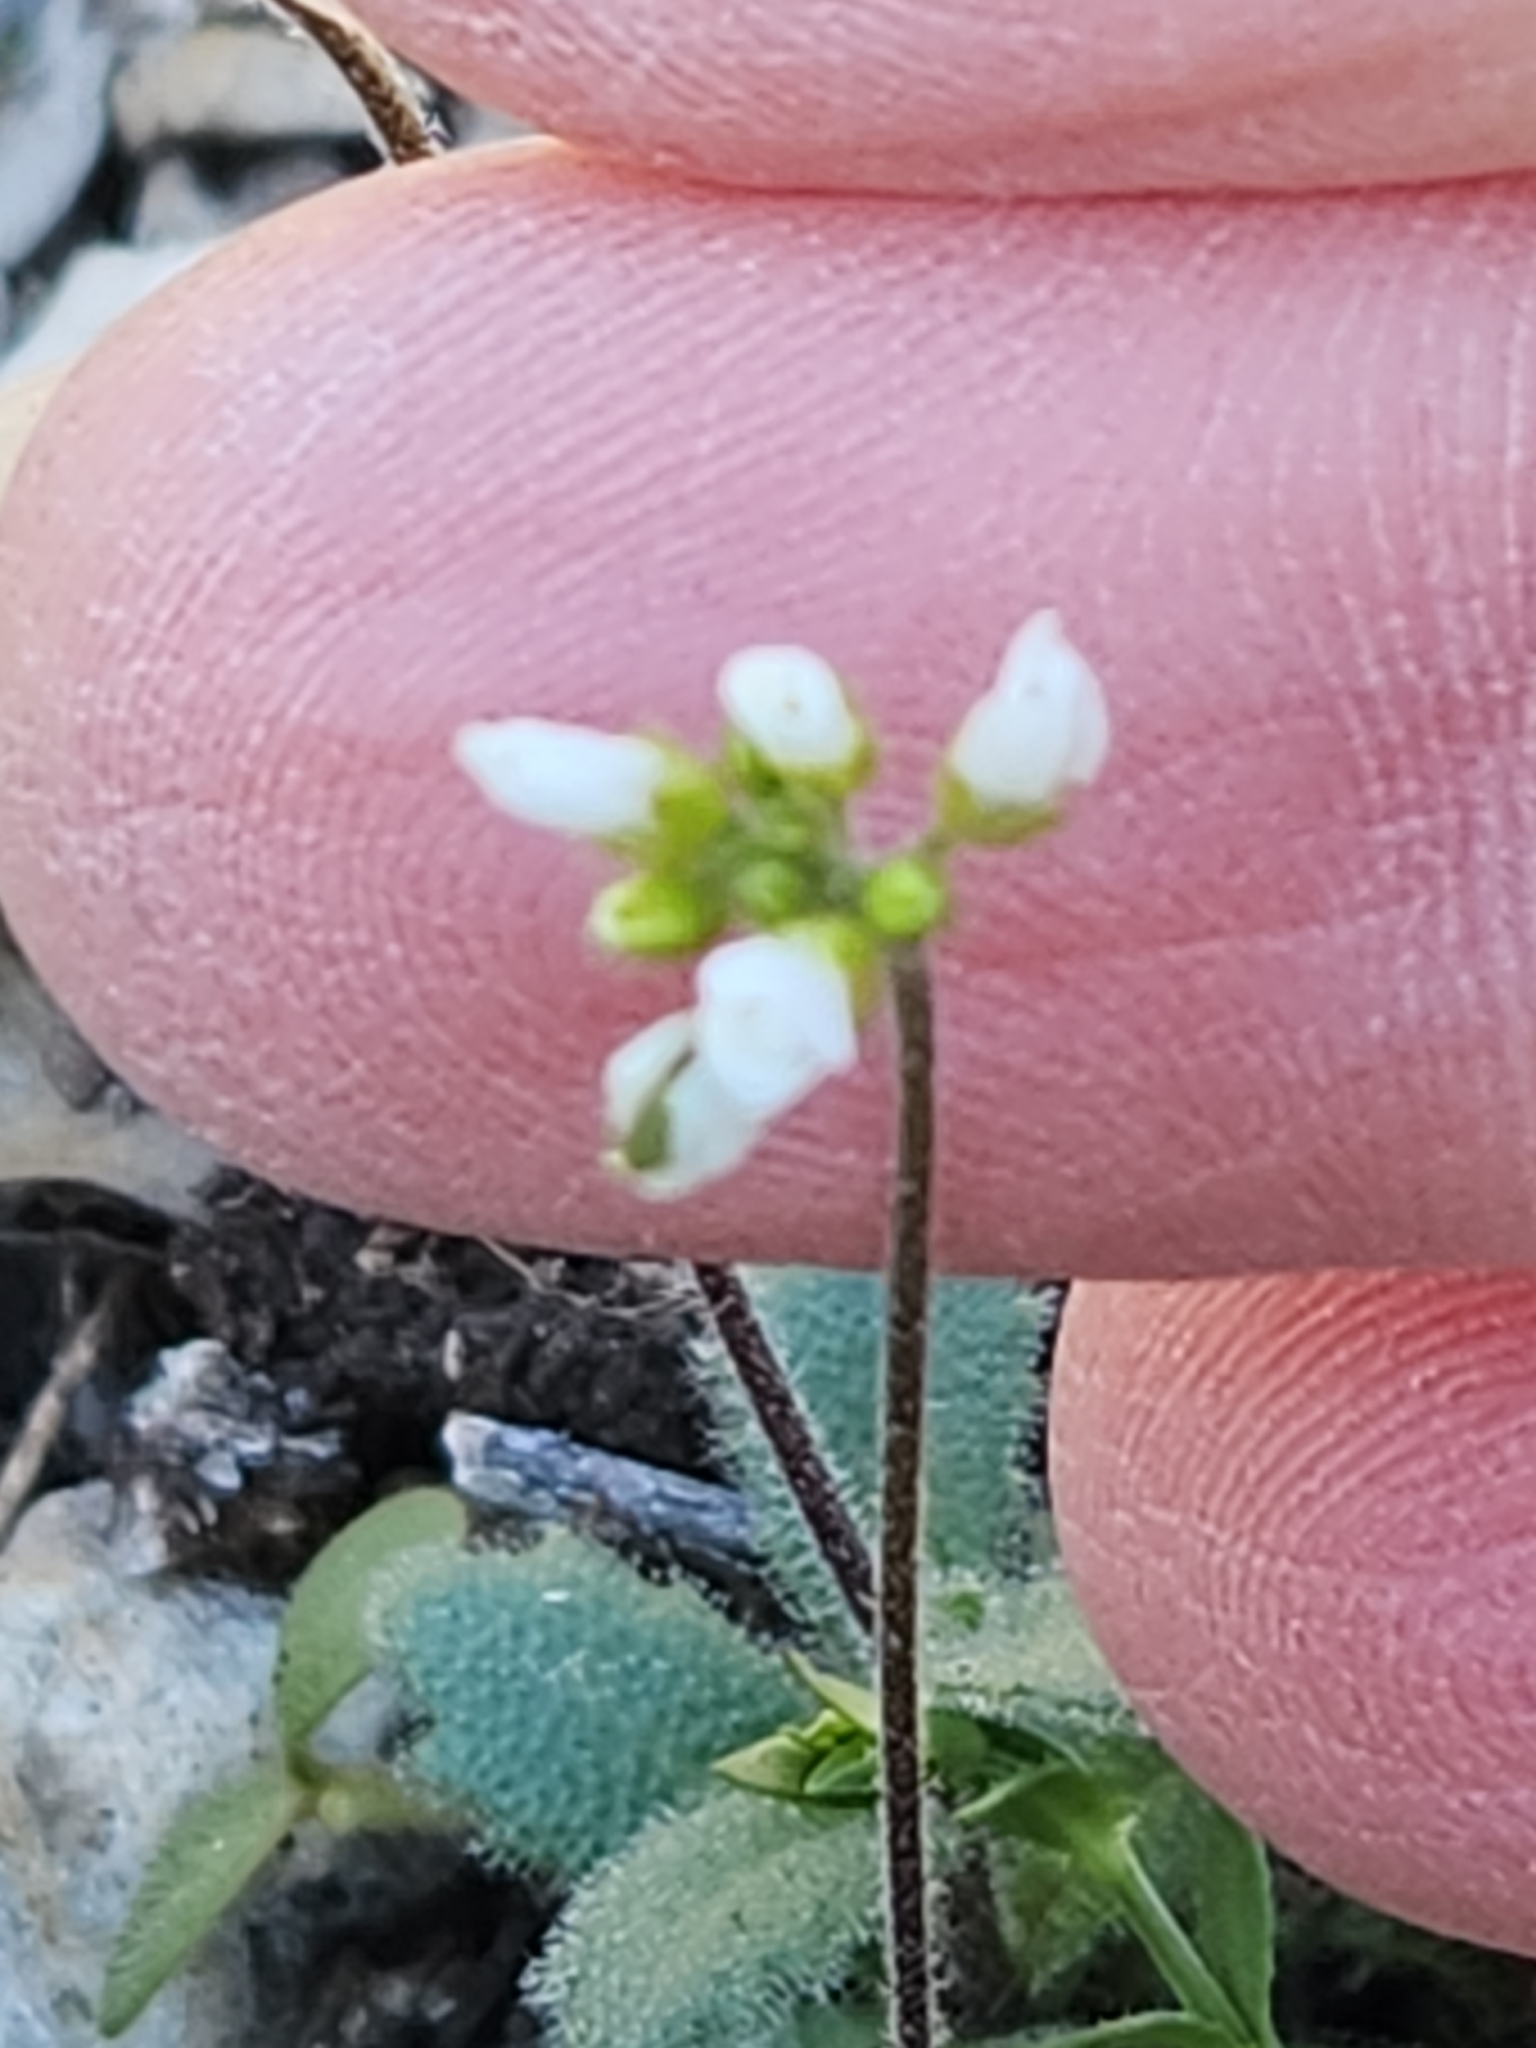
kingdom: Plantae
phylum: Tracheophyta
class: Magnoliopsida
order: Brassicales
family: Brassicaceae
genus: Tomostima
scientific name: Tomostima cuneifolia
